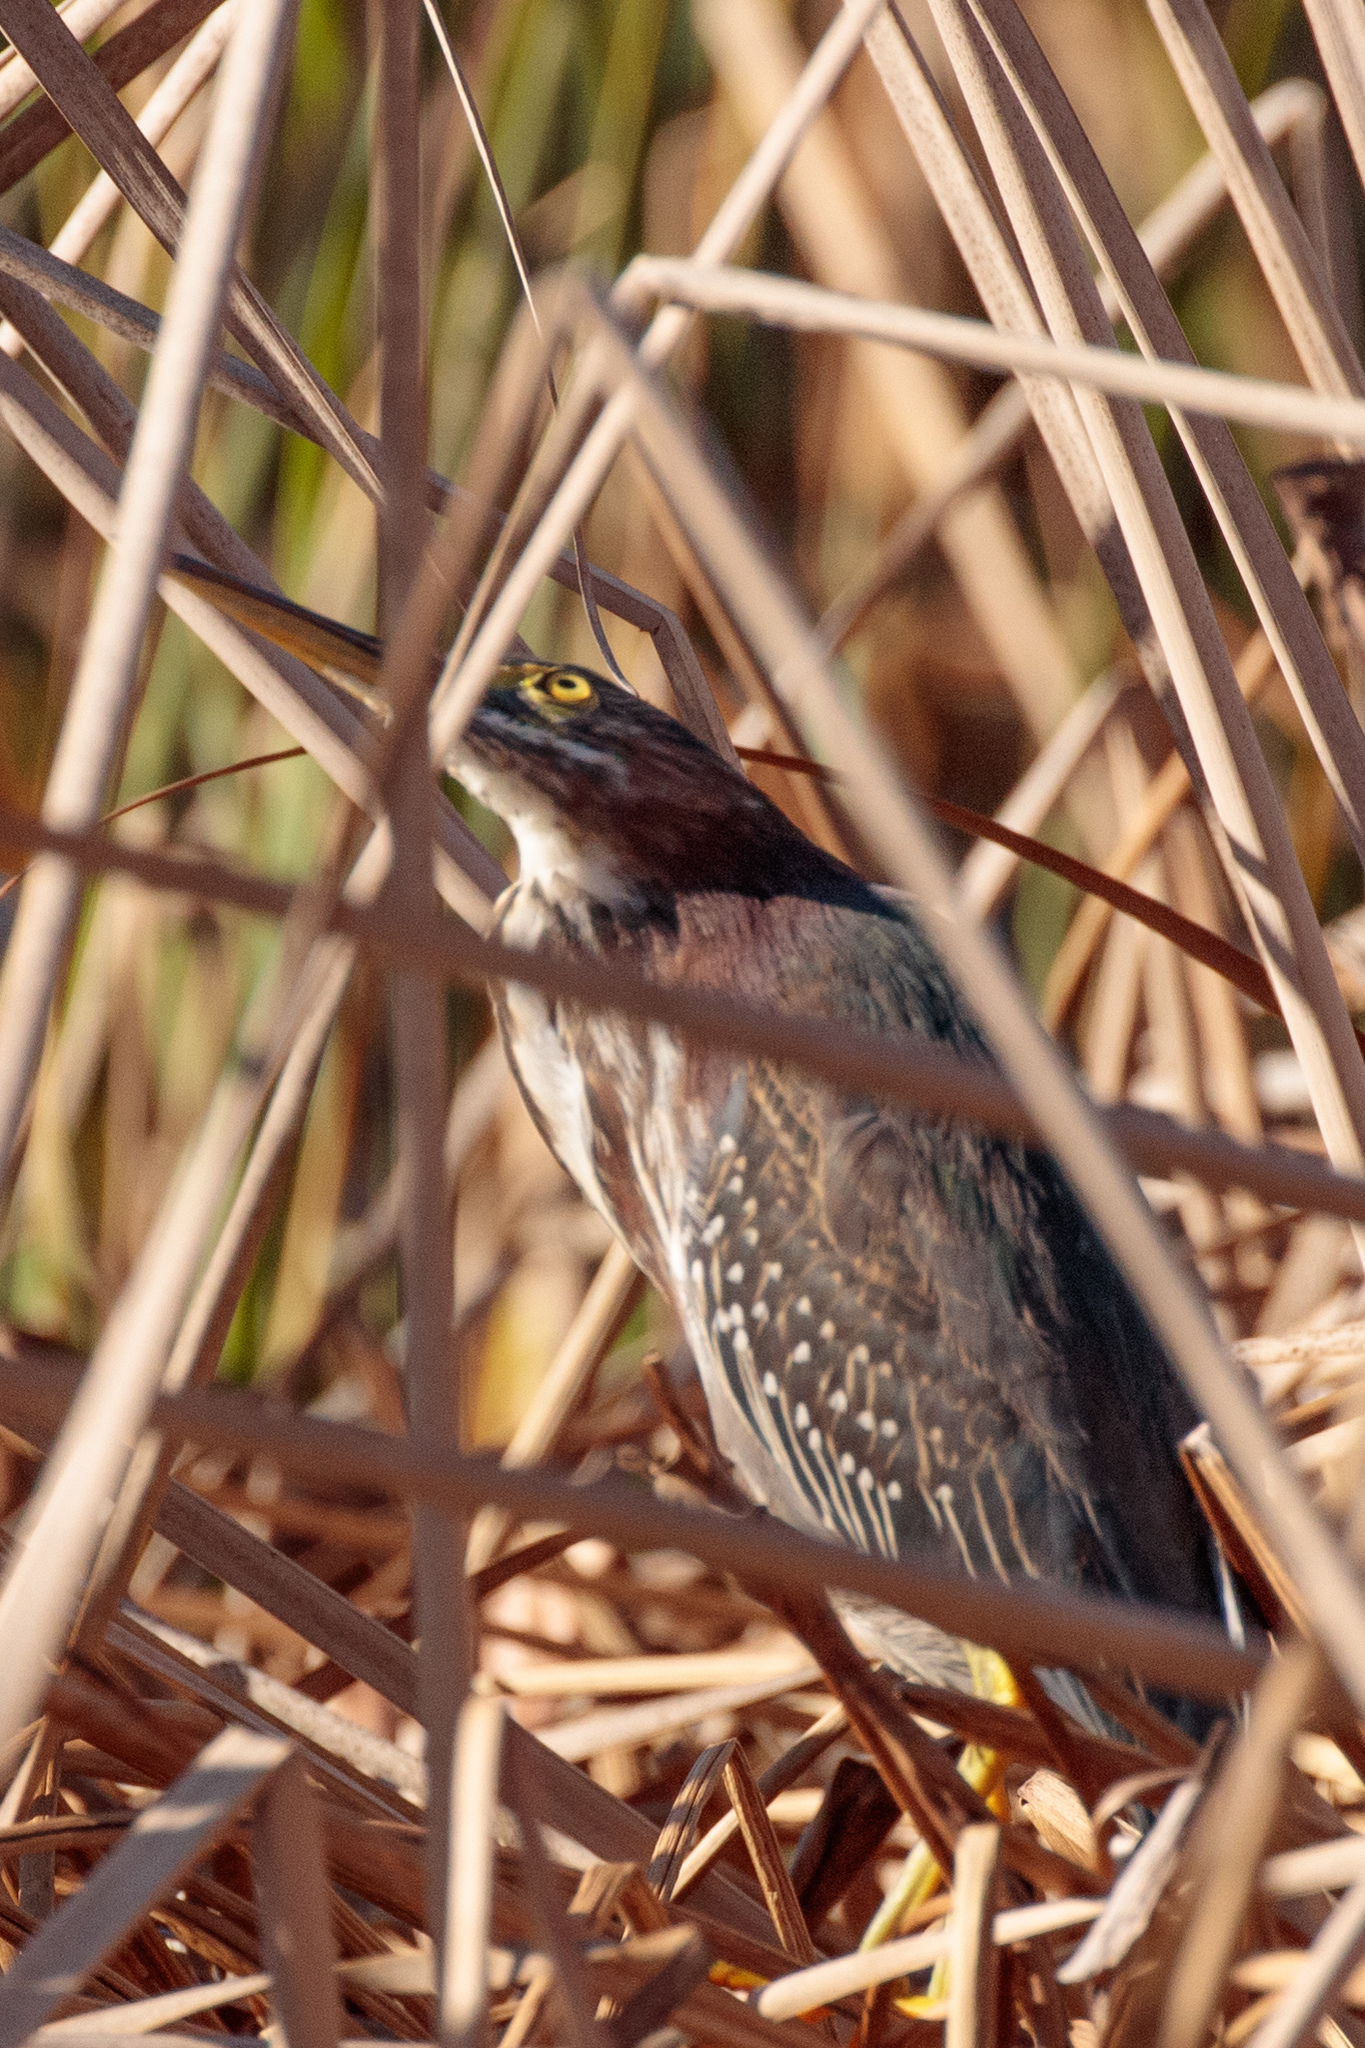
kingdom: Animalia
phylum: Chordata
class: Aves
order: Pelecaniformes
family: Ardeidae
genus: Butorides
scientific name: Butorides virescens
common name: Green heron
